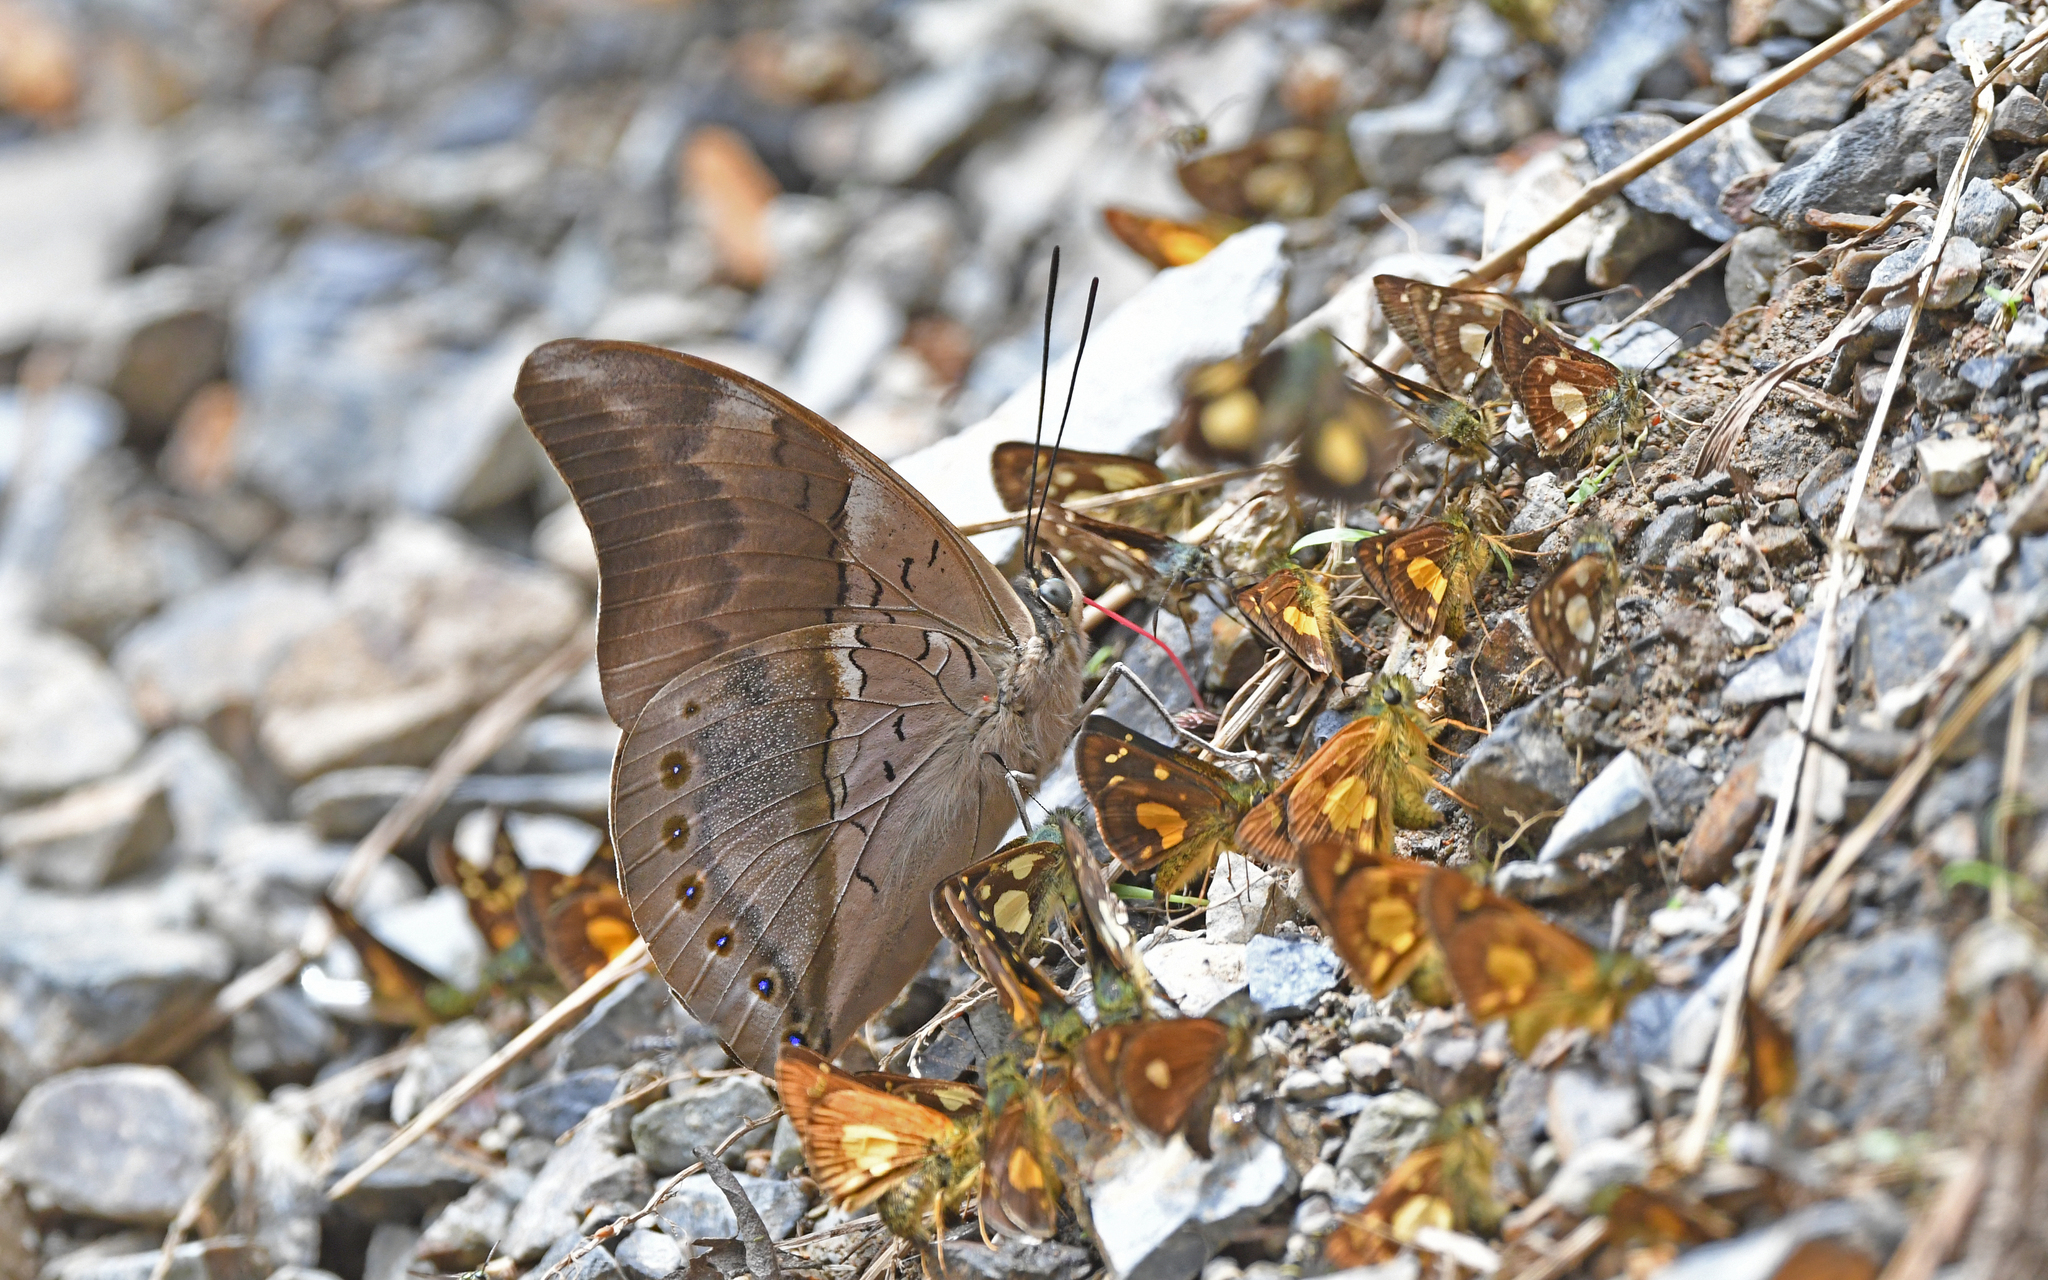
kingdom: Animalia
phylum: Arthropoda
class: Insecta
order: Lepidoptera
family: Nymphalidae
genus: Prepona
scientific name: Prepona
